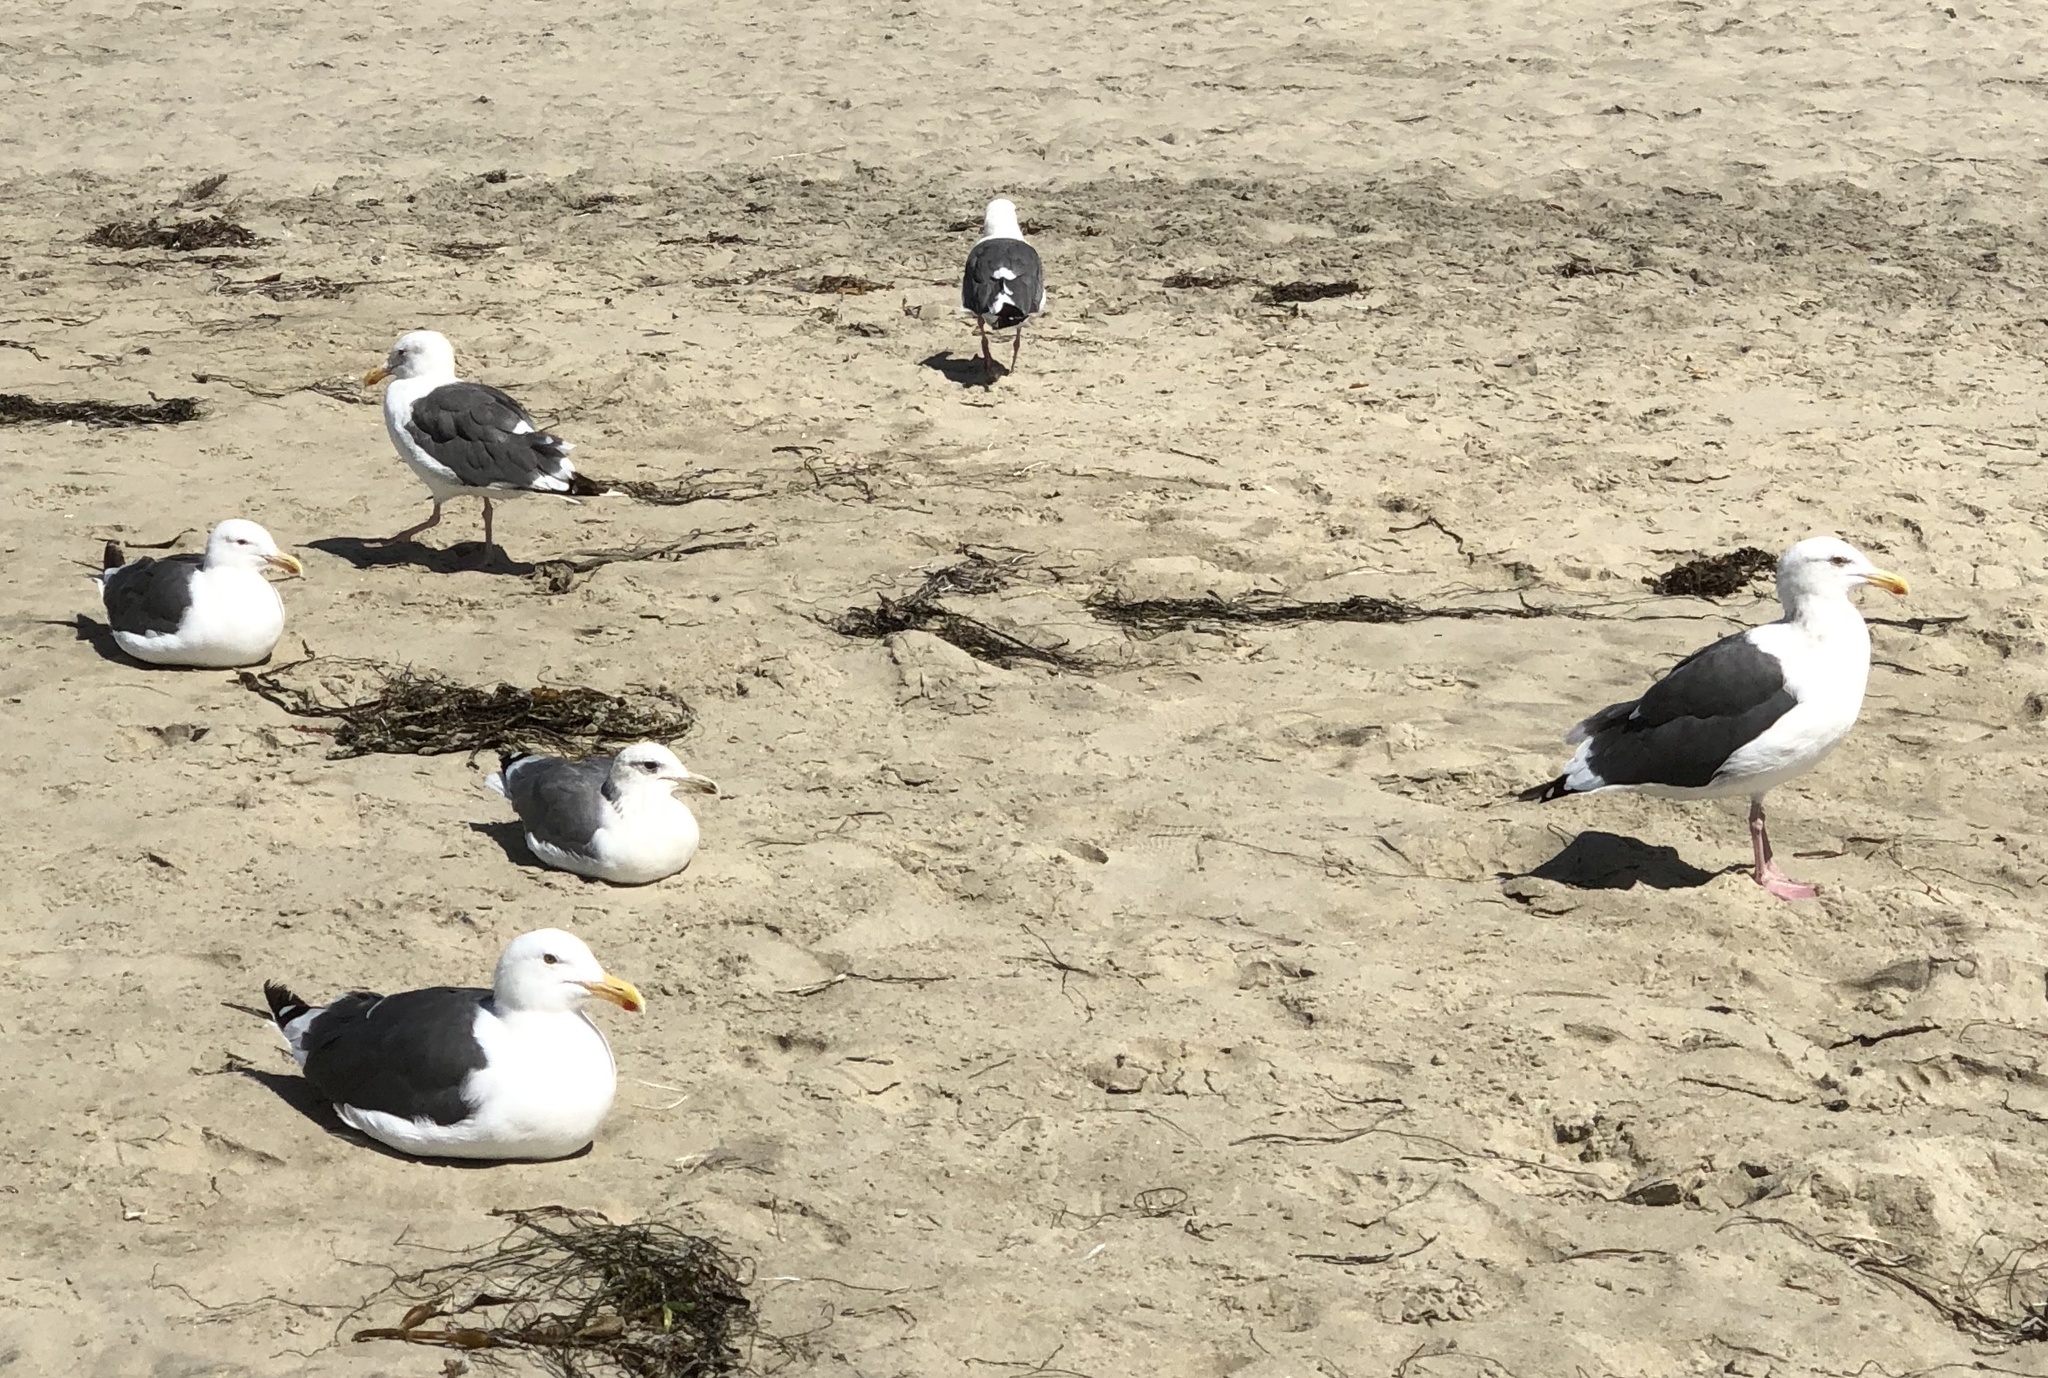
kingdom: Animalia
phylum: Chordata
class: Aves
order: Charadriiformes
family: Laridae
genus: Larus
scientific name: Larus occidentalis
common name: Western gull
